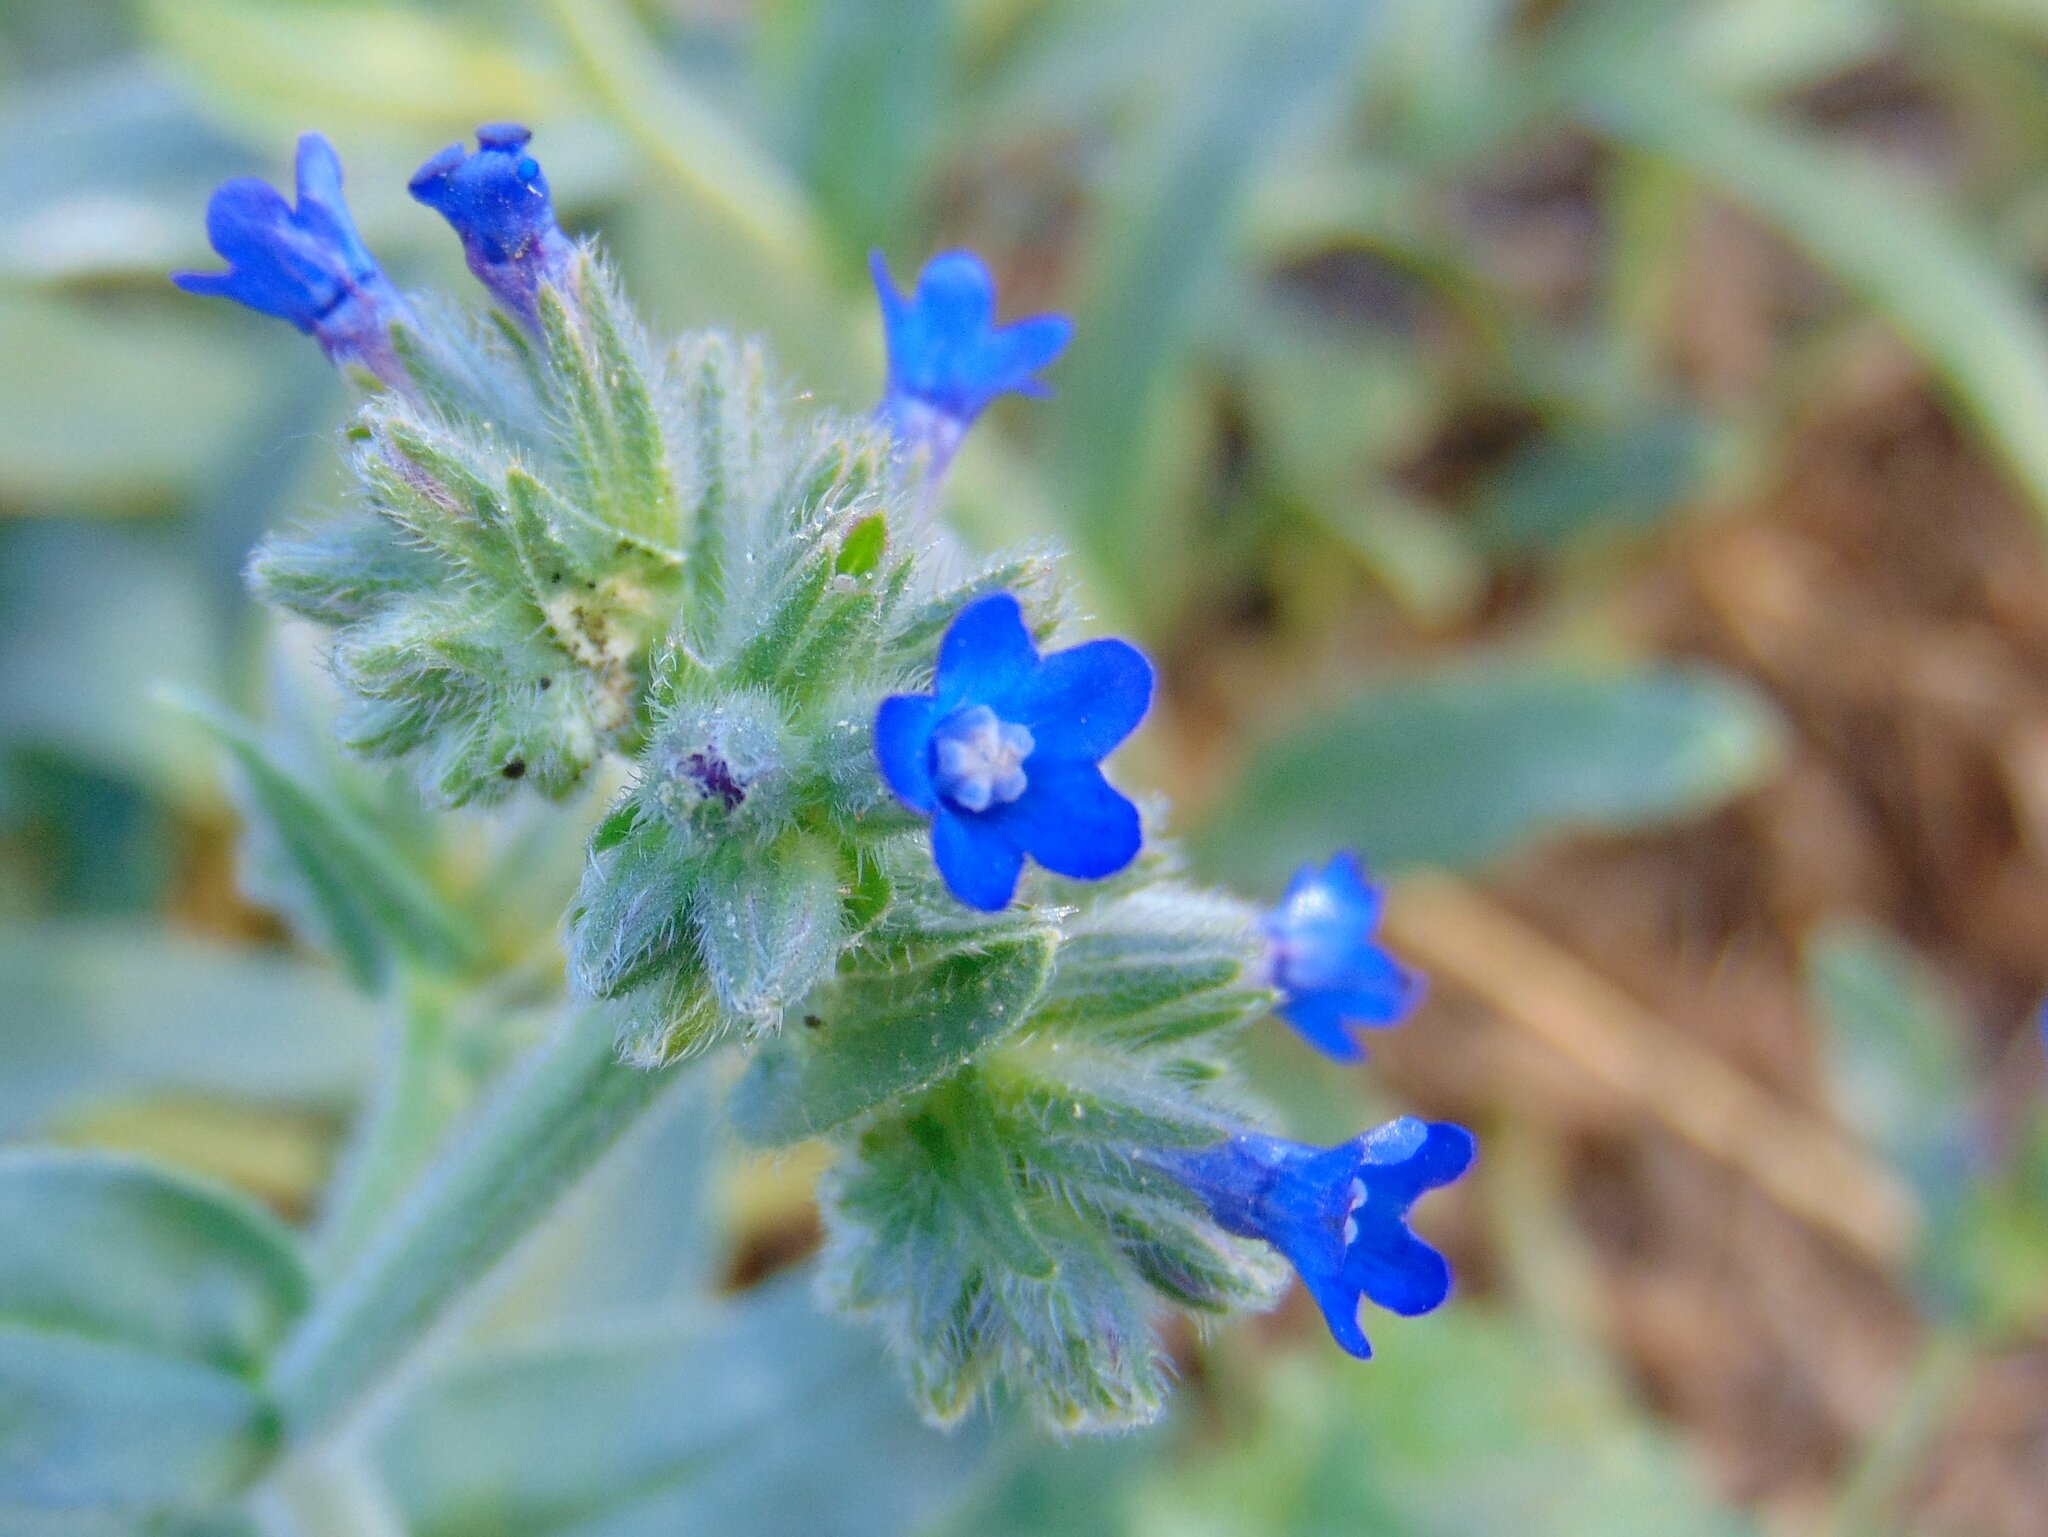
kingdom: Plantae
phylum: Tracheophyta
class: Magnoliopsida
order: Boraginales
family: Boraginaceae
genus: Anchusa
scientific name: Anchusa officinalis
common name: Alkanet
